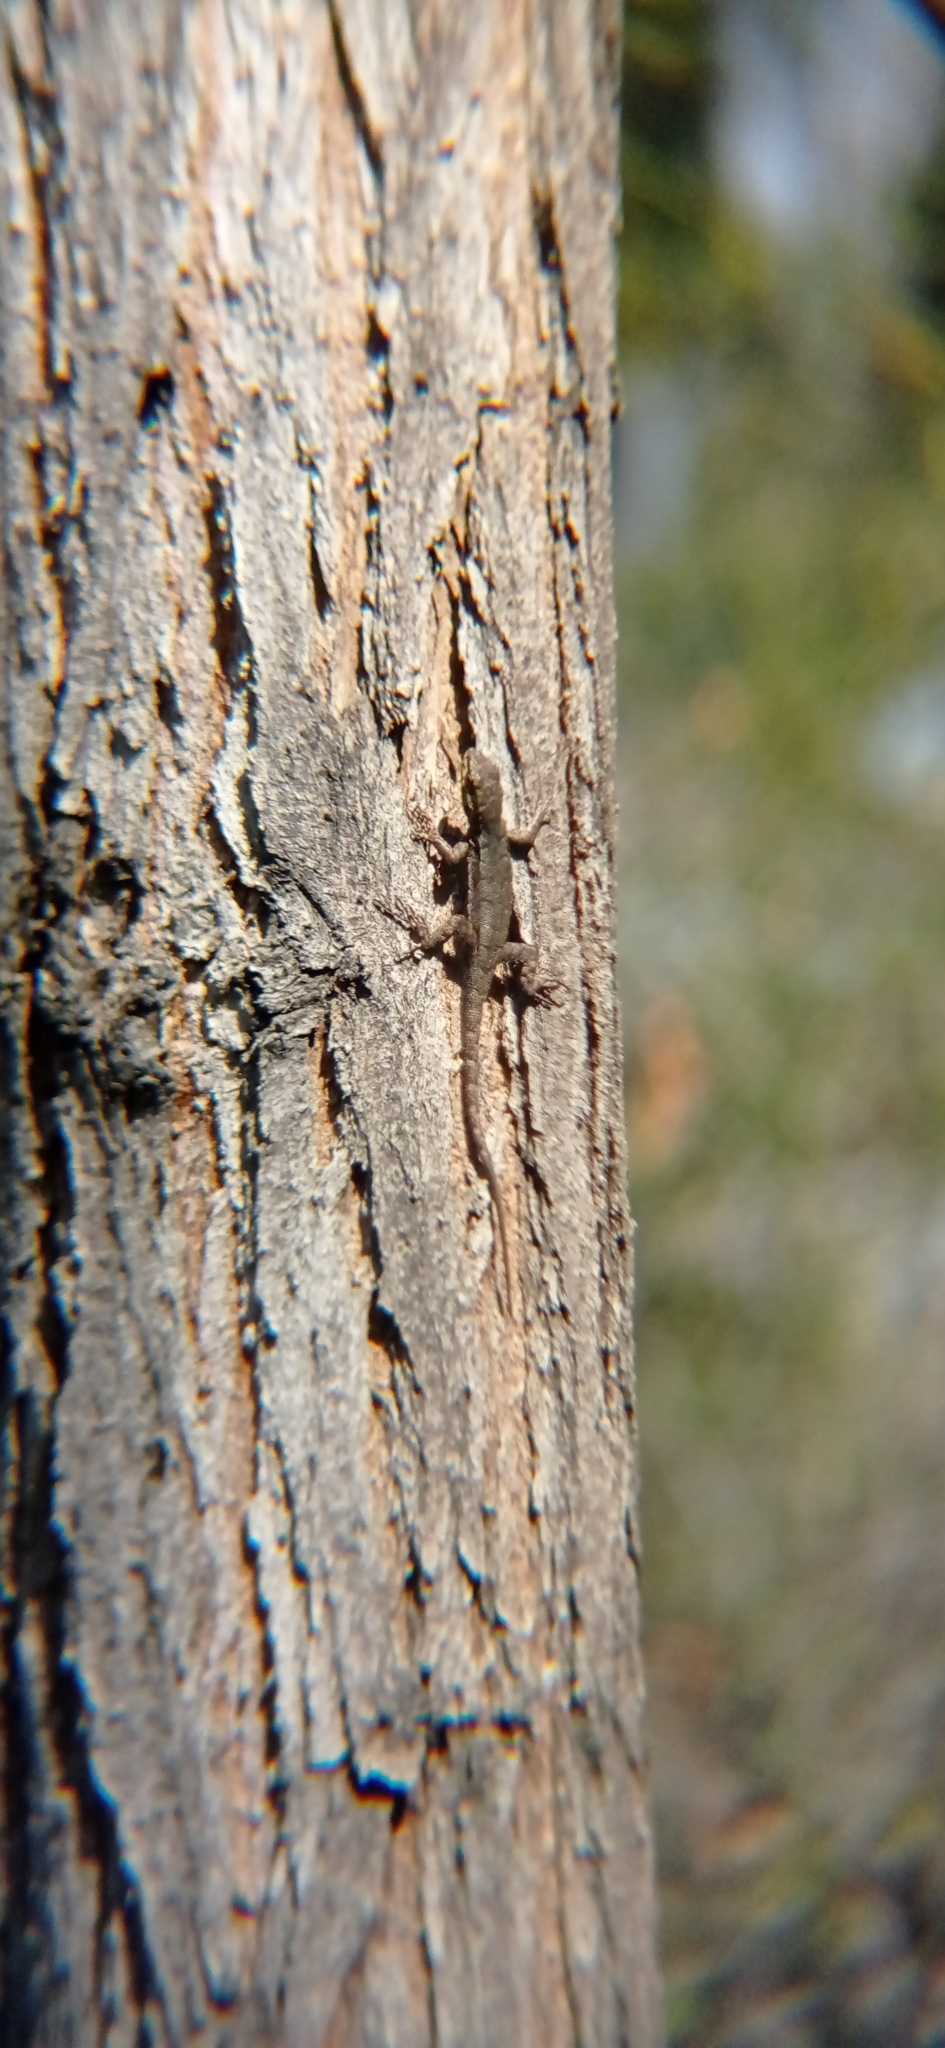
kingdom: Animalia
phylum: Chordata
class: Squamata
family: Liolaemidae
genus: Liolaemus
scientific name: Liolaemus tenuis
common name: Thin tree iguana
